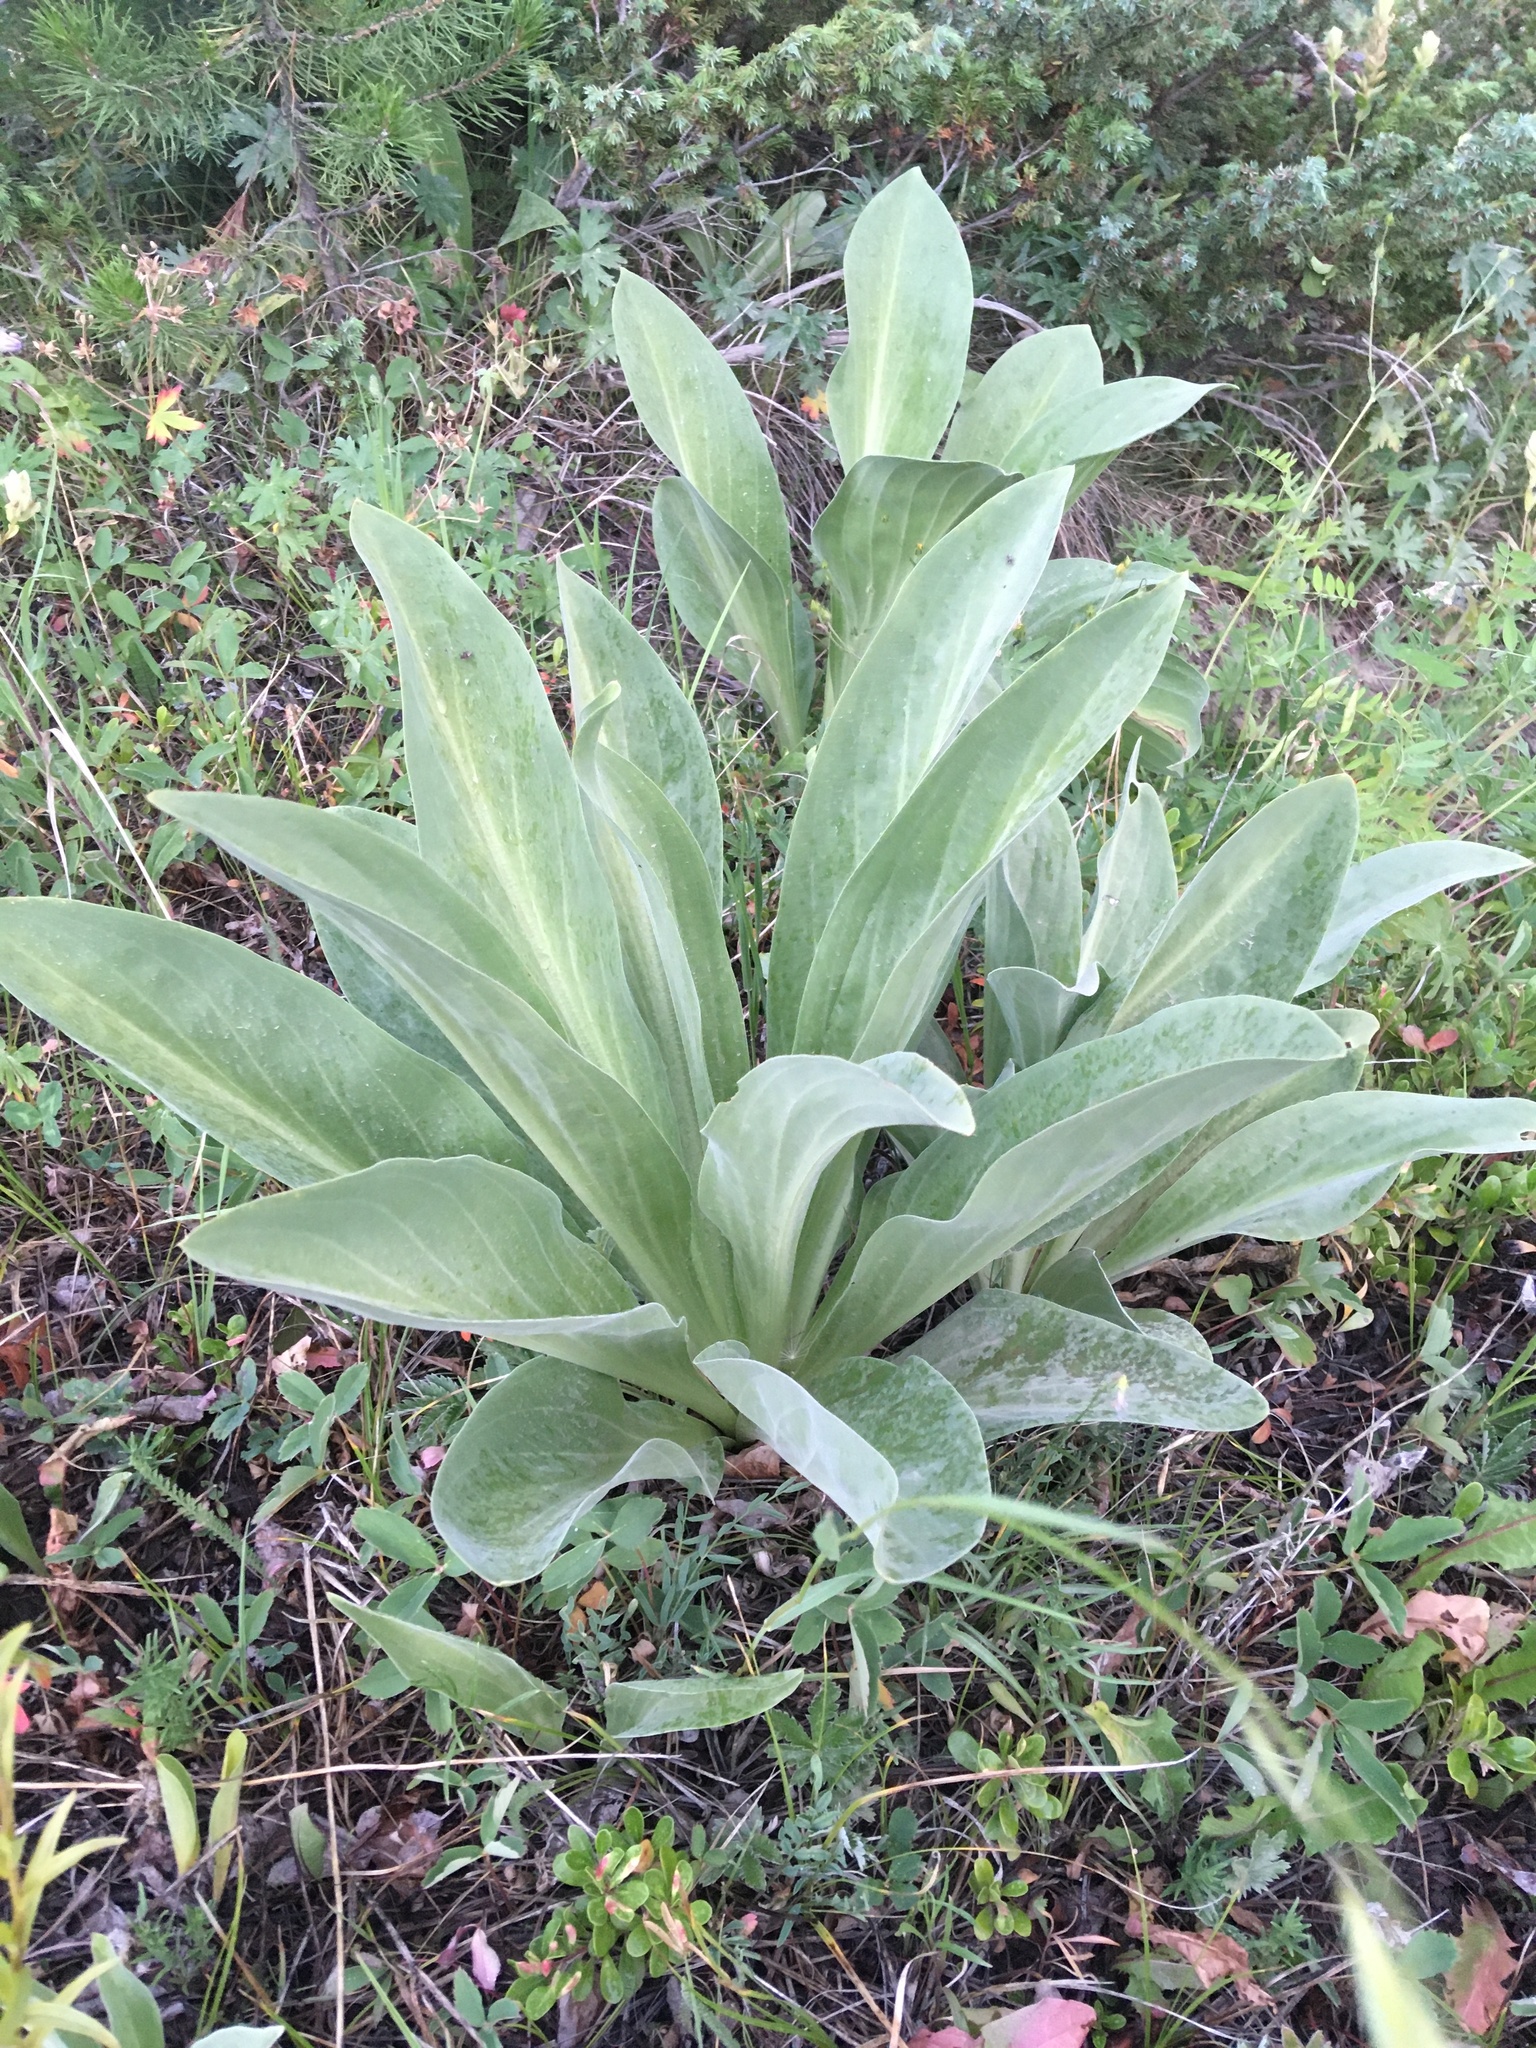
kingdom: Plantae
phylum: Tracheophyta
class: Magnoliopsida
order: Lamiales
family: Scrophulariaceae
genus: Verbascum
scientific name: Verbascum thapsus
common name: Common mullein
